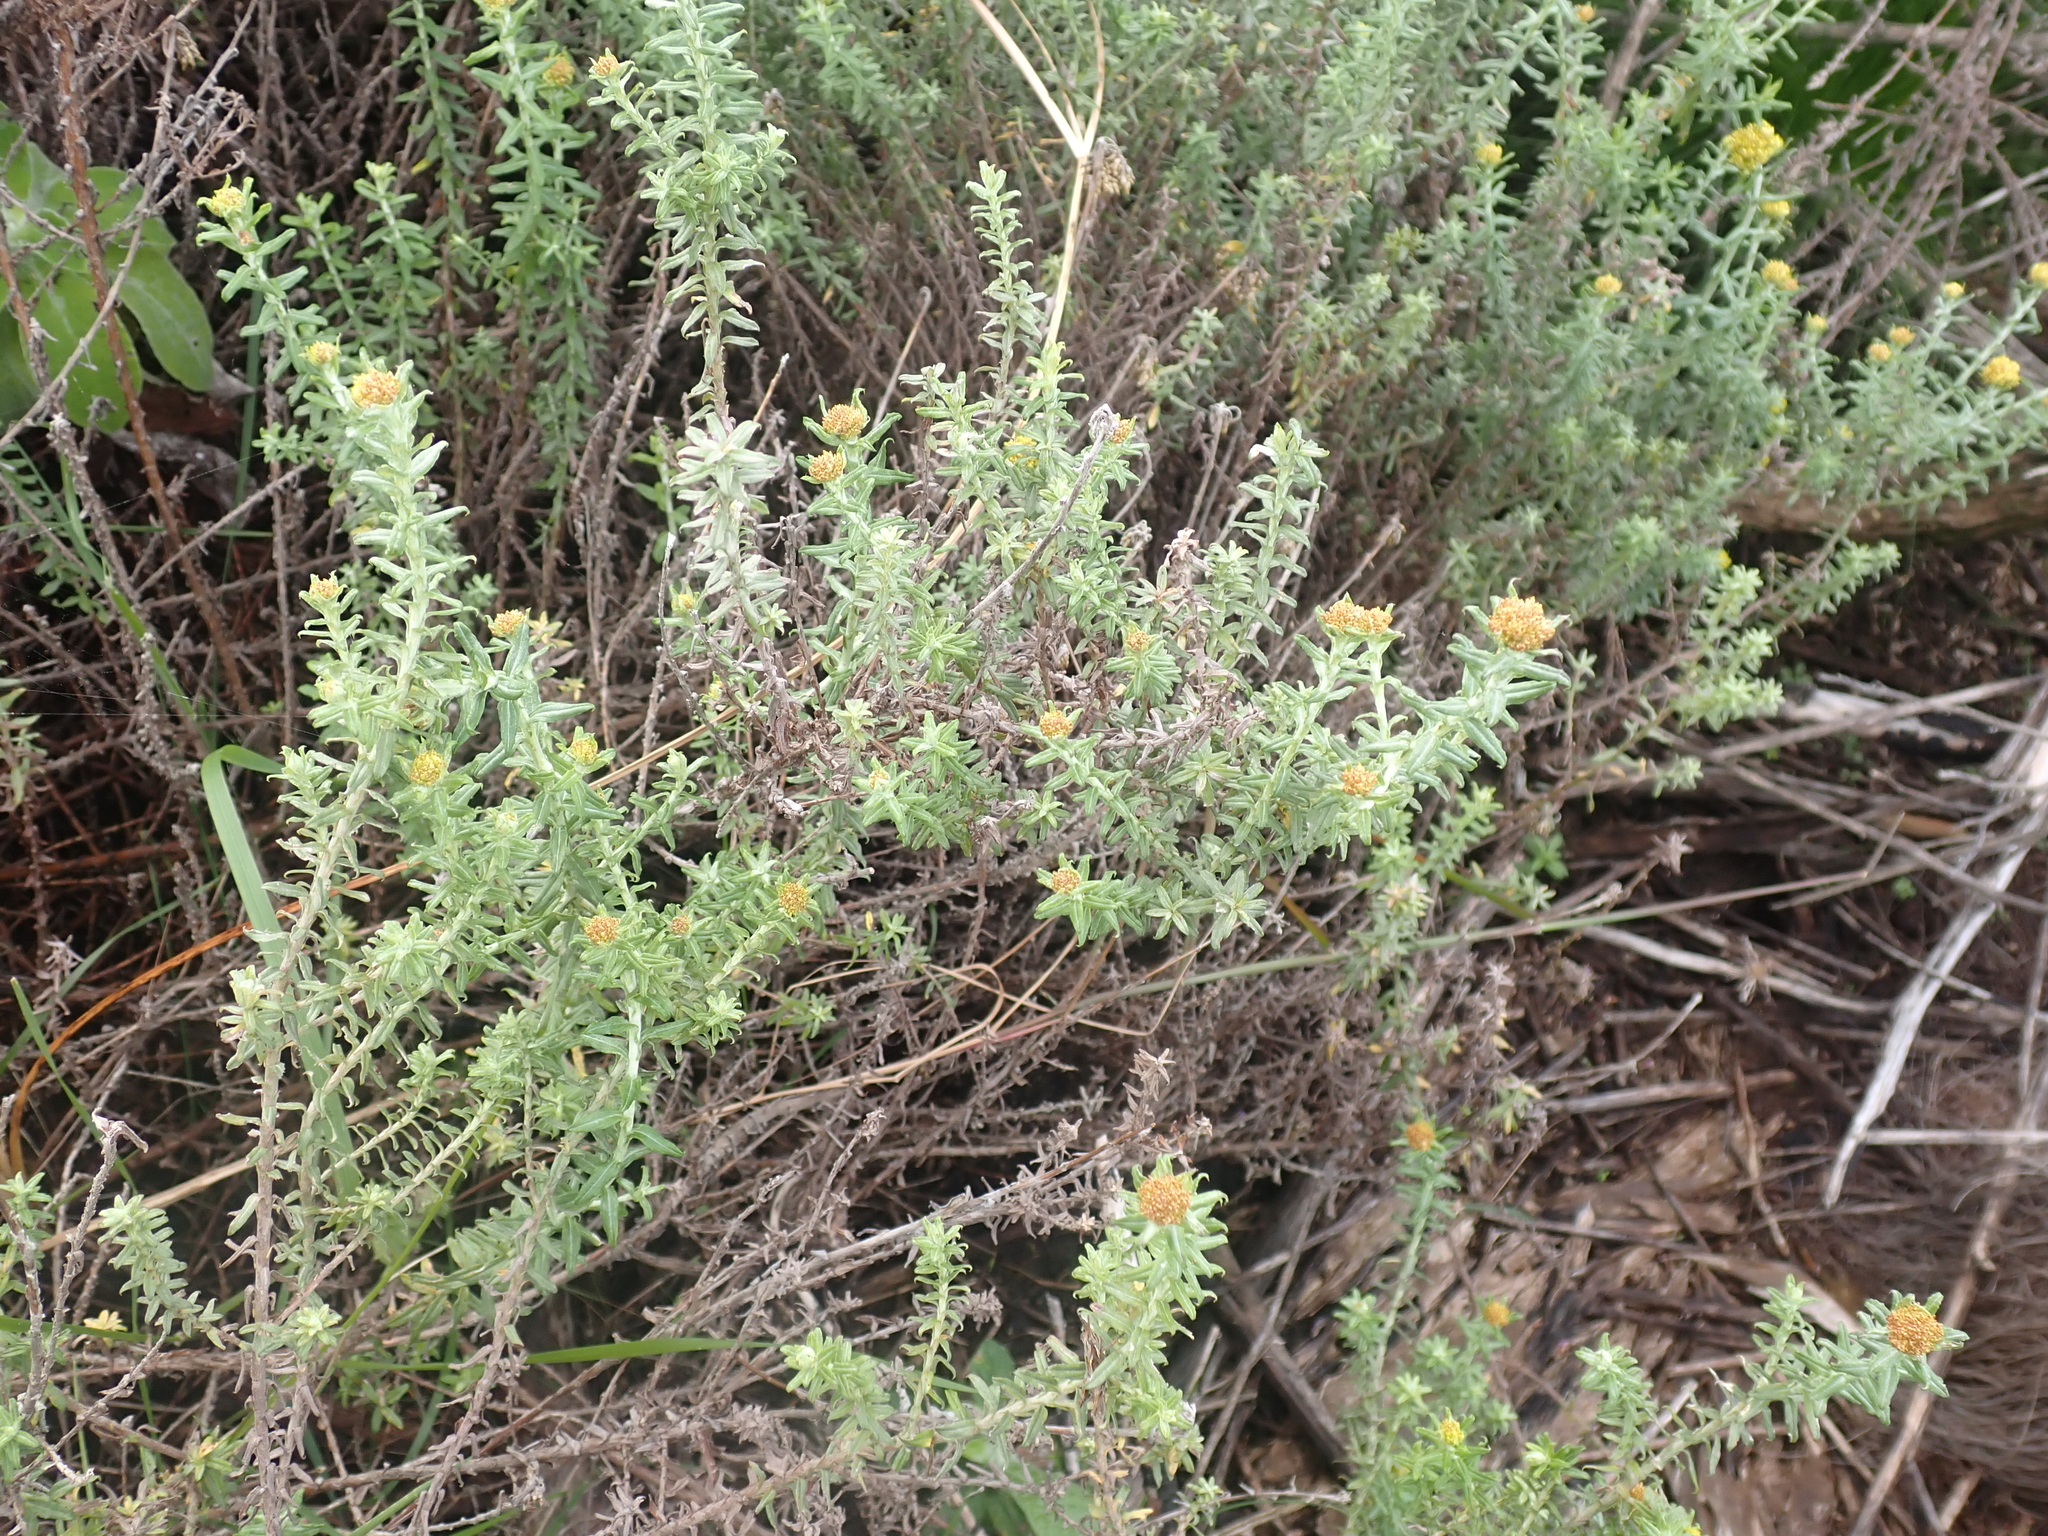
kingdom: Plantae
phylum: Tracheophyta
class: Magnoliopsida
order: Asterales
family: Asteraceae
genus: Helichrysum
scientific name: Helichrysum cymosum
